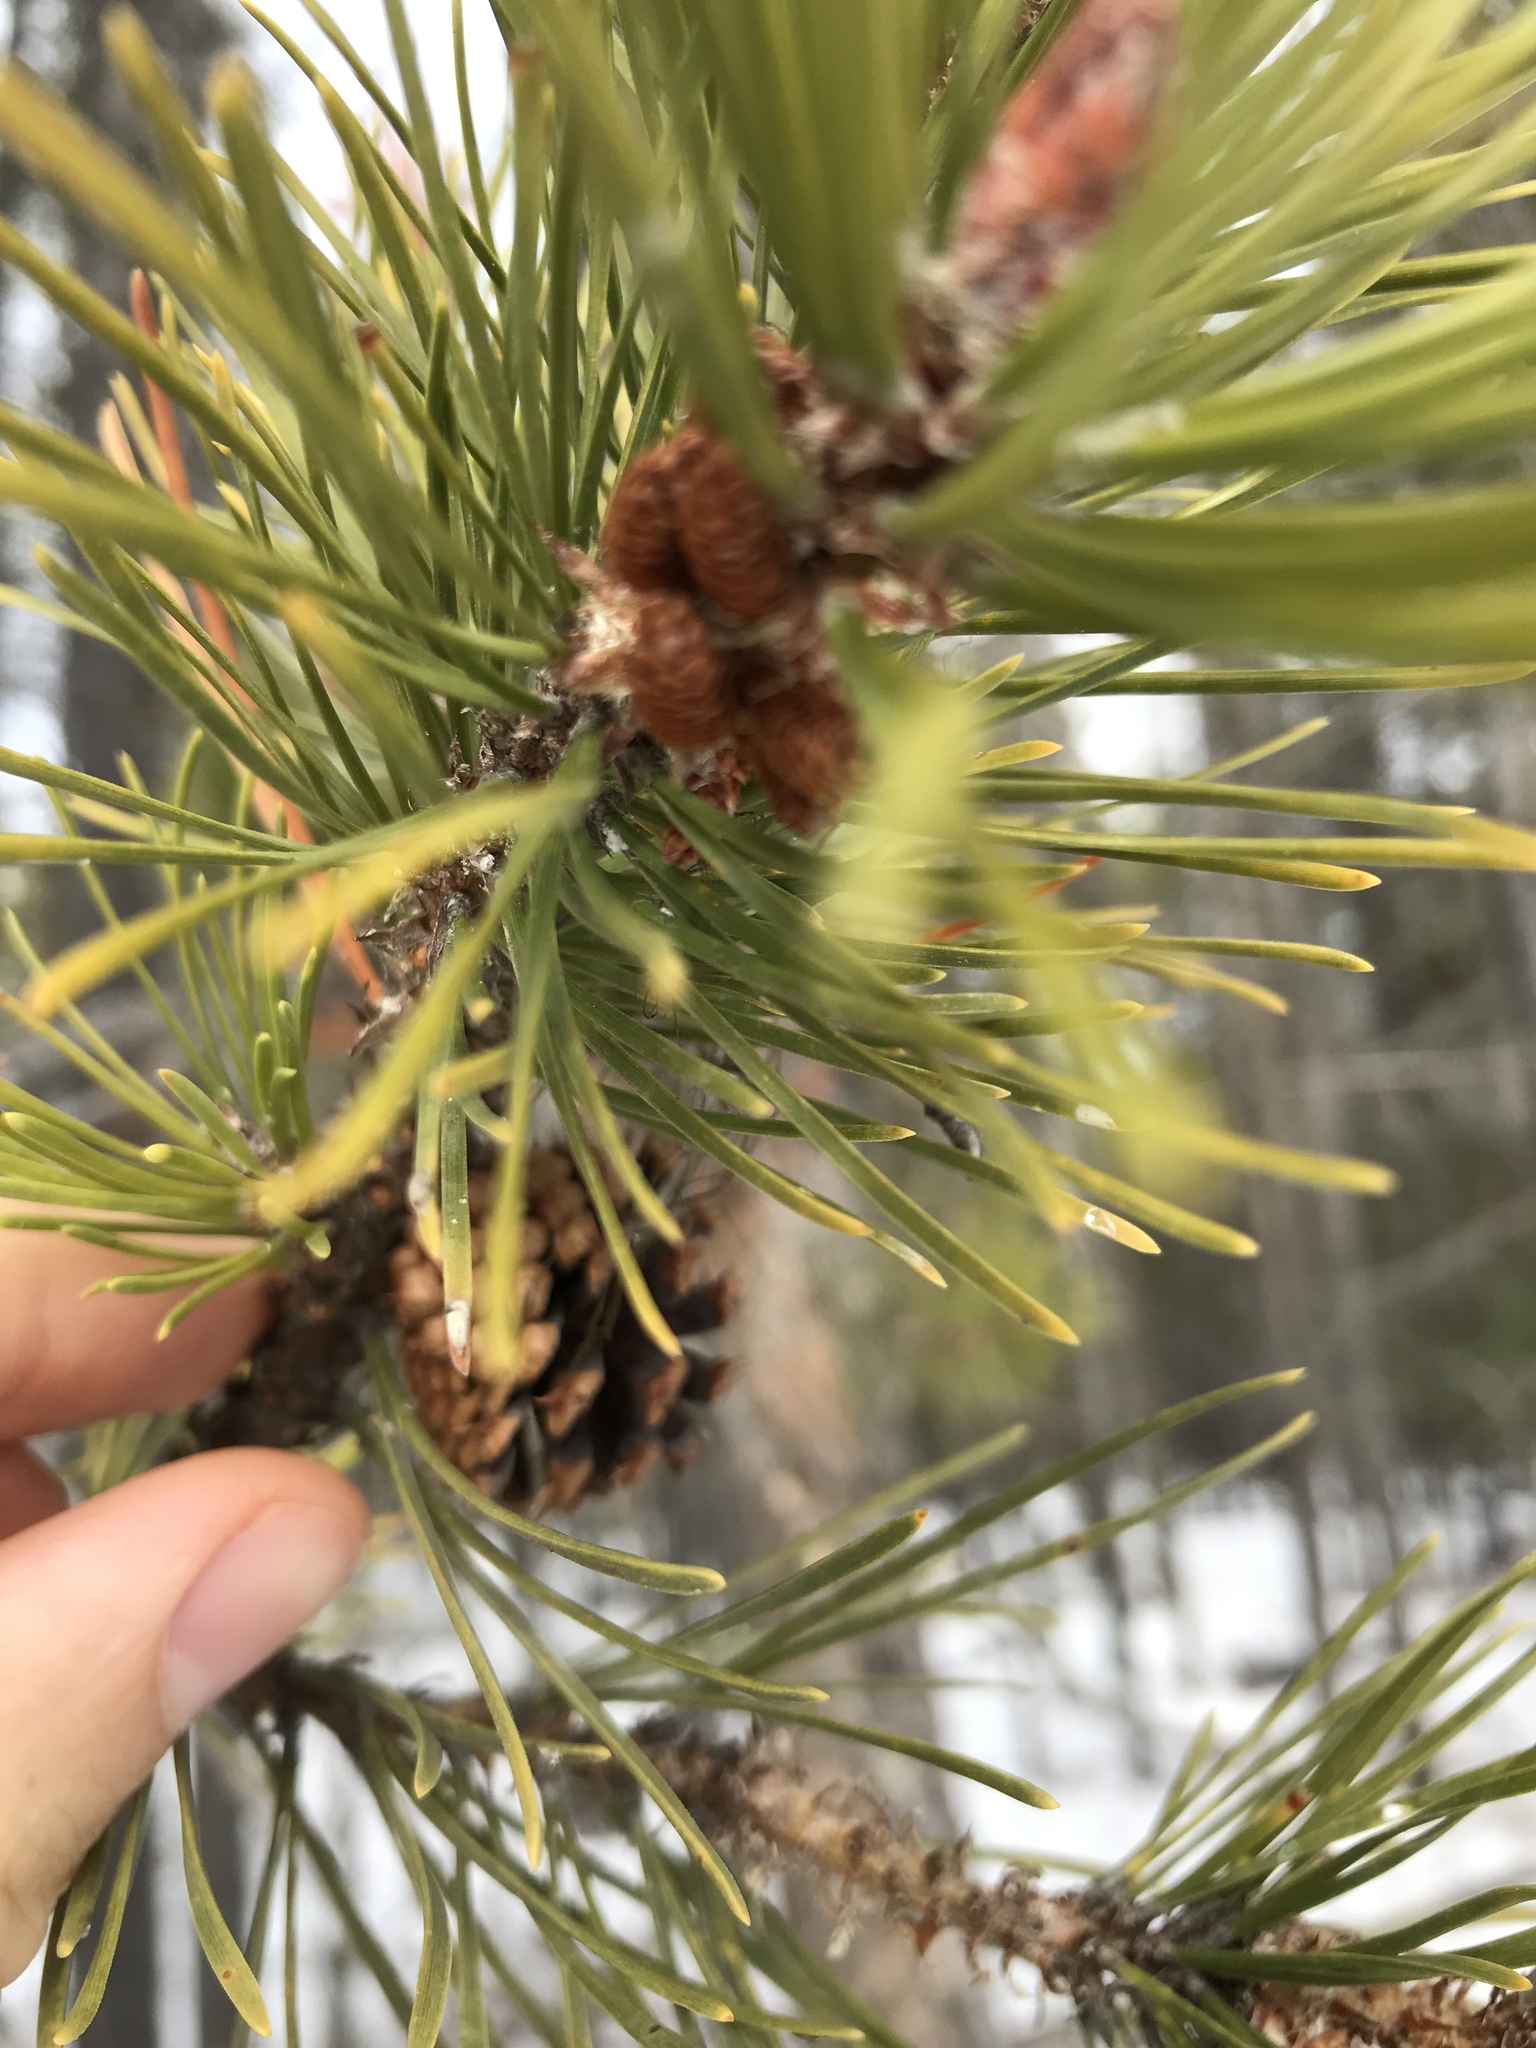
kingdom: Plantae
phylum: Tracheophyta
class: Pinopsida
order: Pinales
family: Pinaceae
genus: Pinus
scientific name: Pinus contorta
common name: Lodgepole pine
